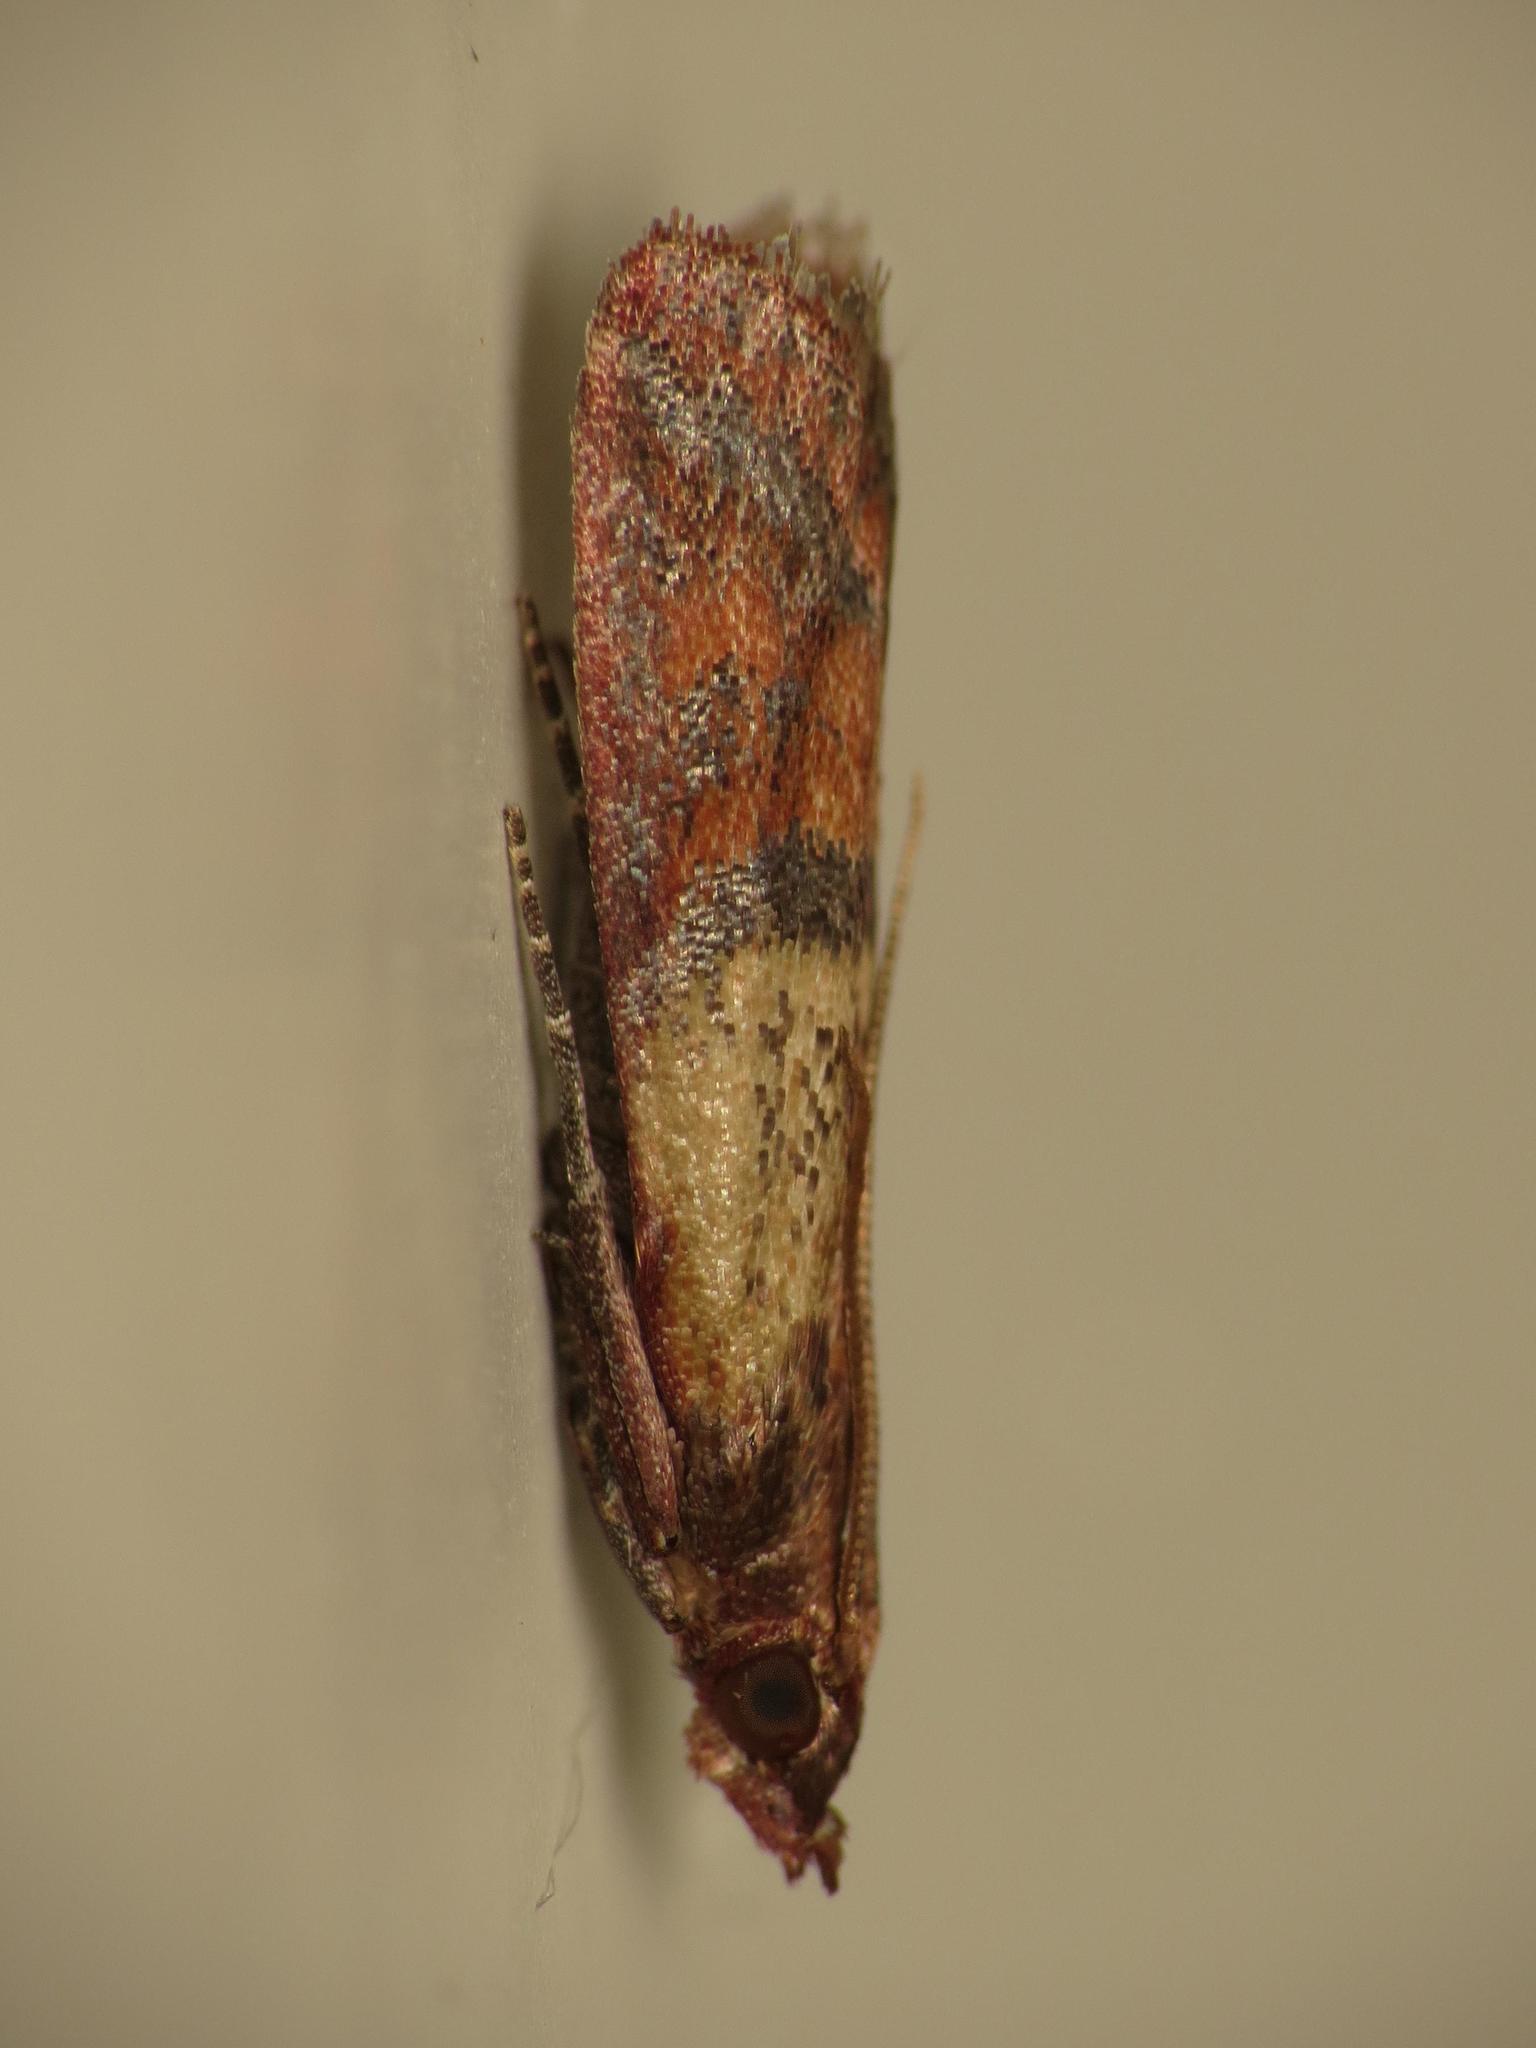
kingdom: Animalia
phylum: Arthropoda
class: Insecta
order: Lepidoptera
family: Pyralidae
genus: Plodia
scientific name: Plodia interpunctella
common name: Indian meal moth
